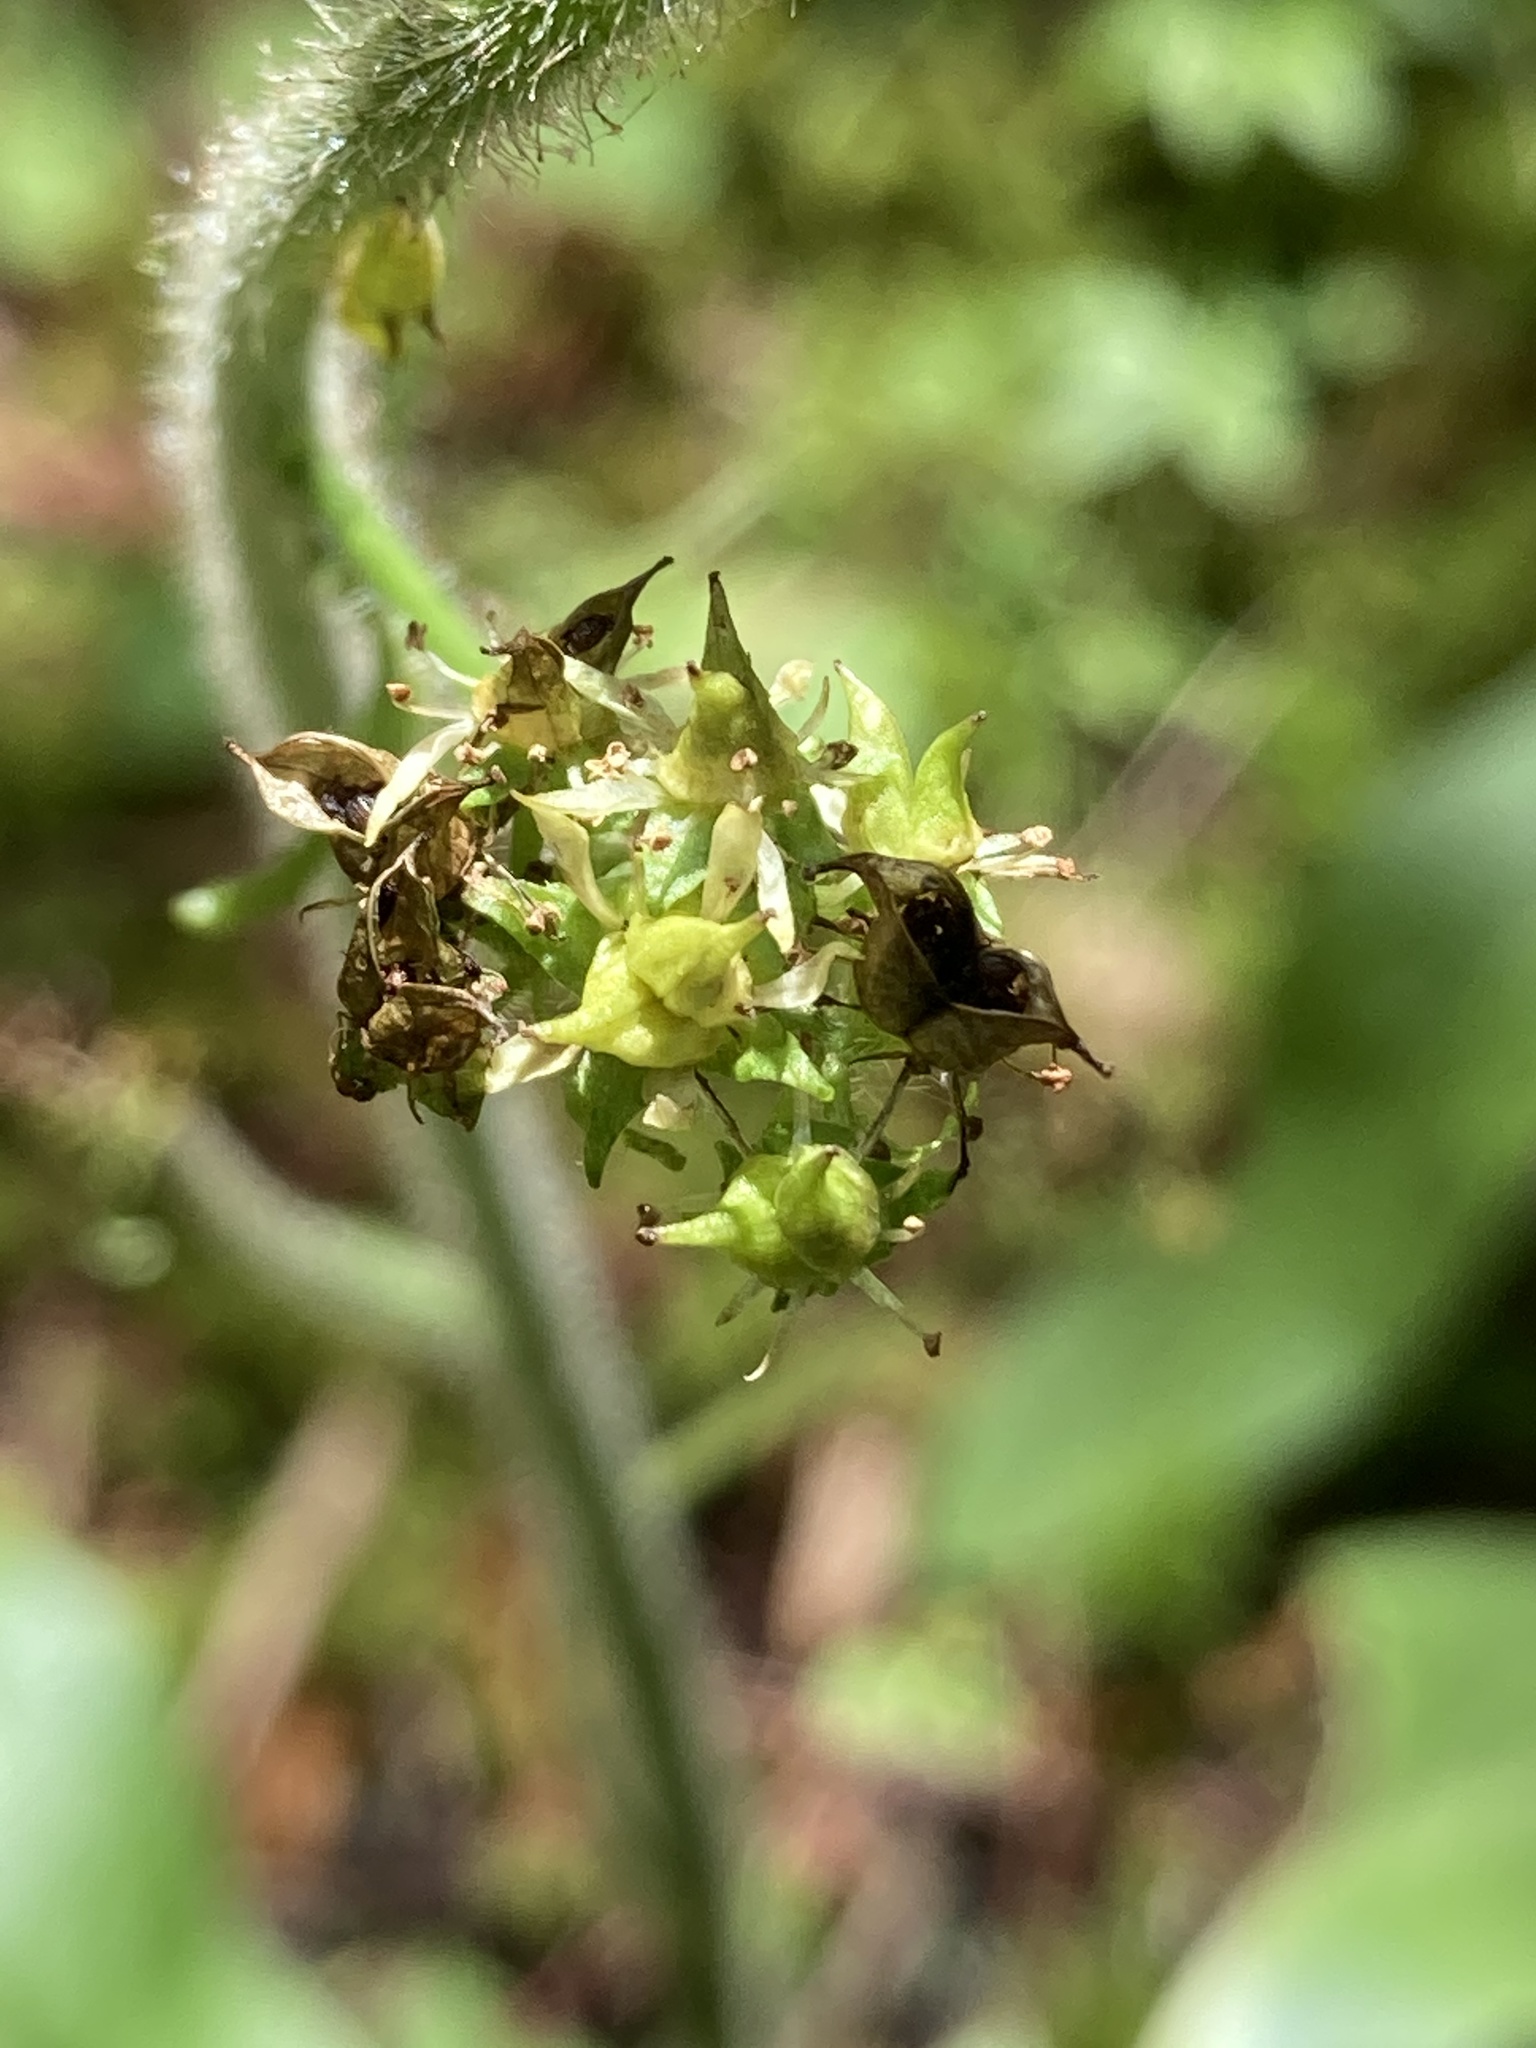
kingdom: Plantae
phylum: Tracheophyta
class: Magnoliopsida
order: Saxifragales
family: Saxifragaceae
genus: Micranthes
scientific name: Micranthes pensylvanica
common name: Marsh saxifrage
